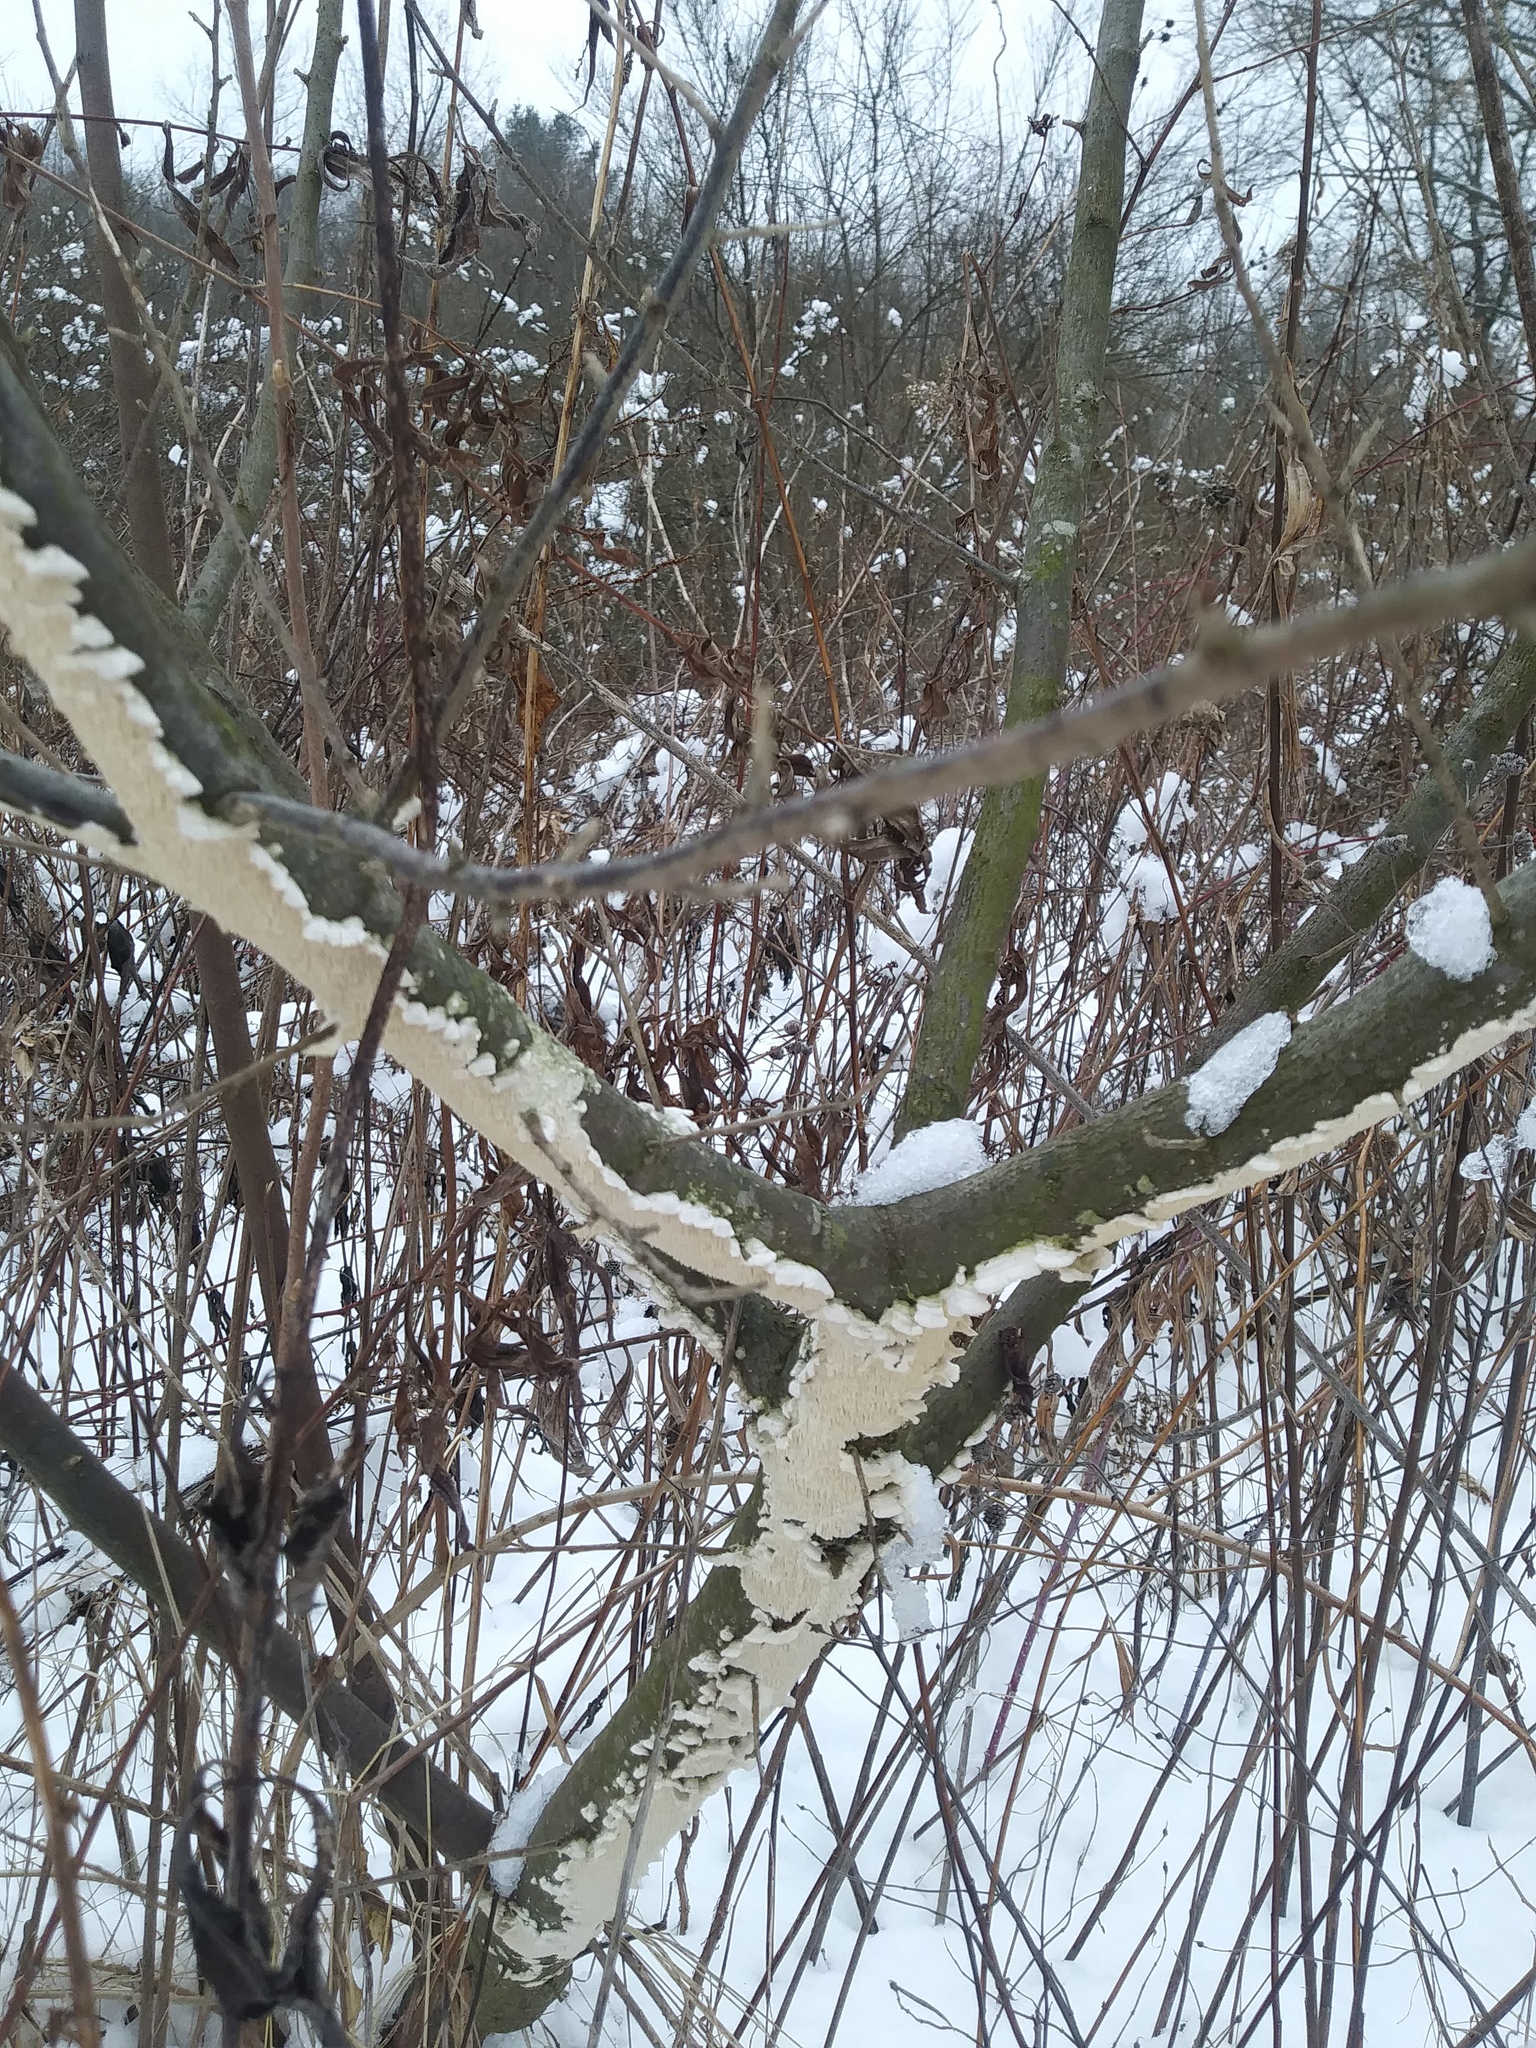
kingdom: Fungi
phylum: Basidiomycota
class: Agaricomycetes
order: Polyporales
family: Irpicaceae
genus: Irpex
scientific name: Irpex lacteus
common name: Milk-white toothed polypore
